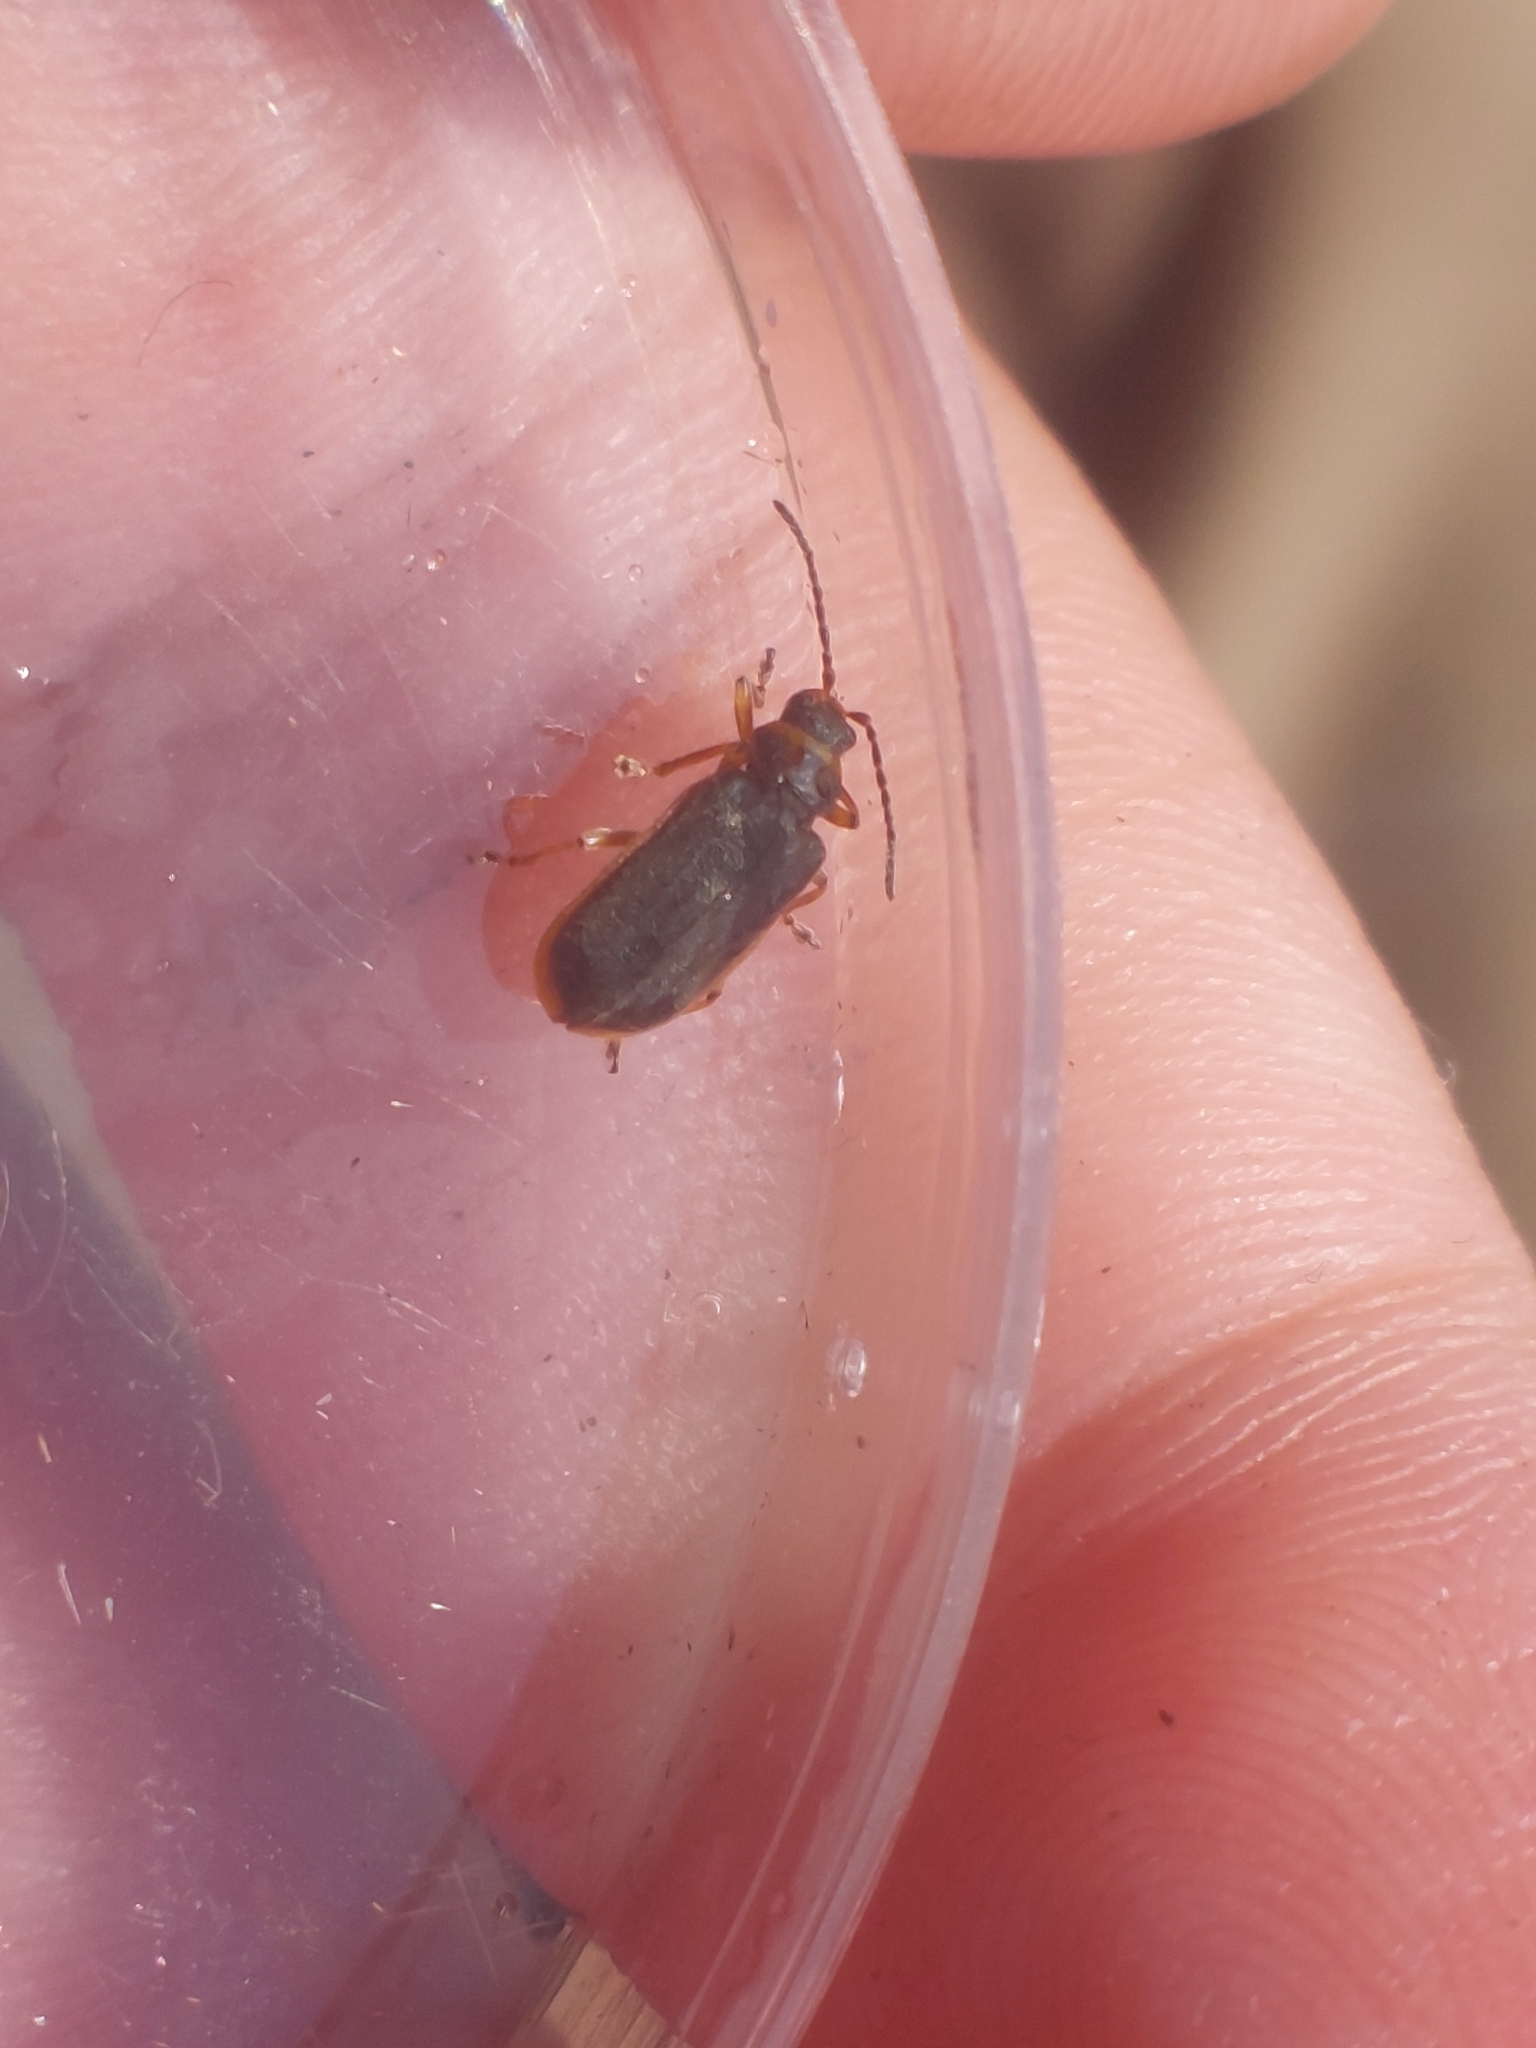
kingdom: Animalia
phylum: Arthropoda
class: Insecta
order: Coleoptera
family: Chrysomelidae
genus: Galerucella
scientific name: Galerucella nymphaeae
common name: Leaf beetle
